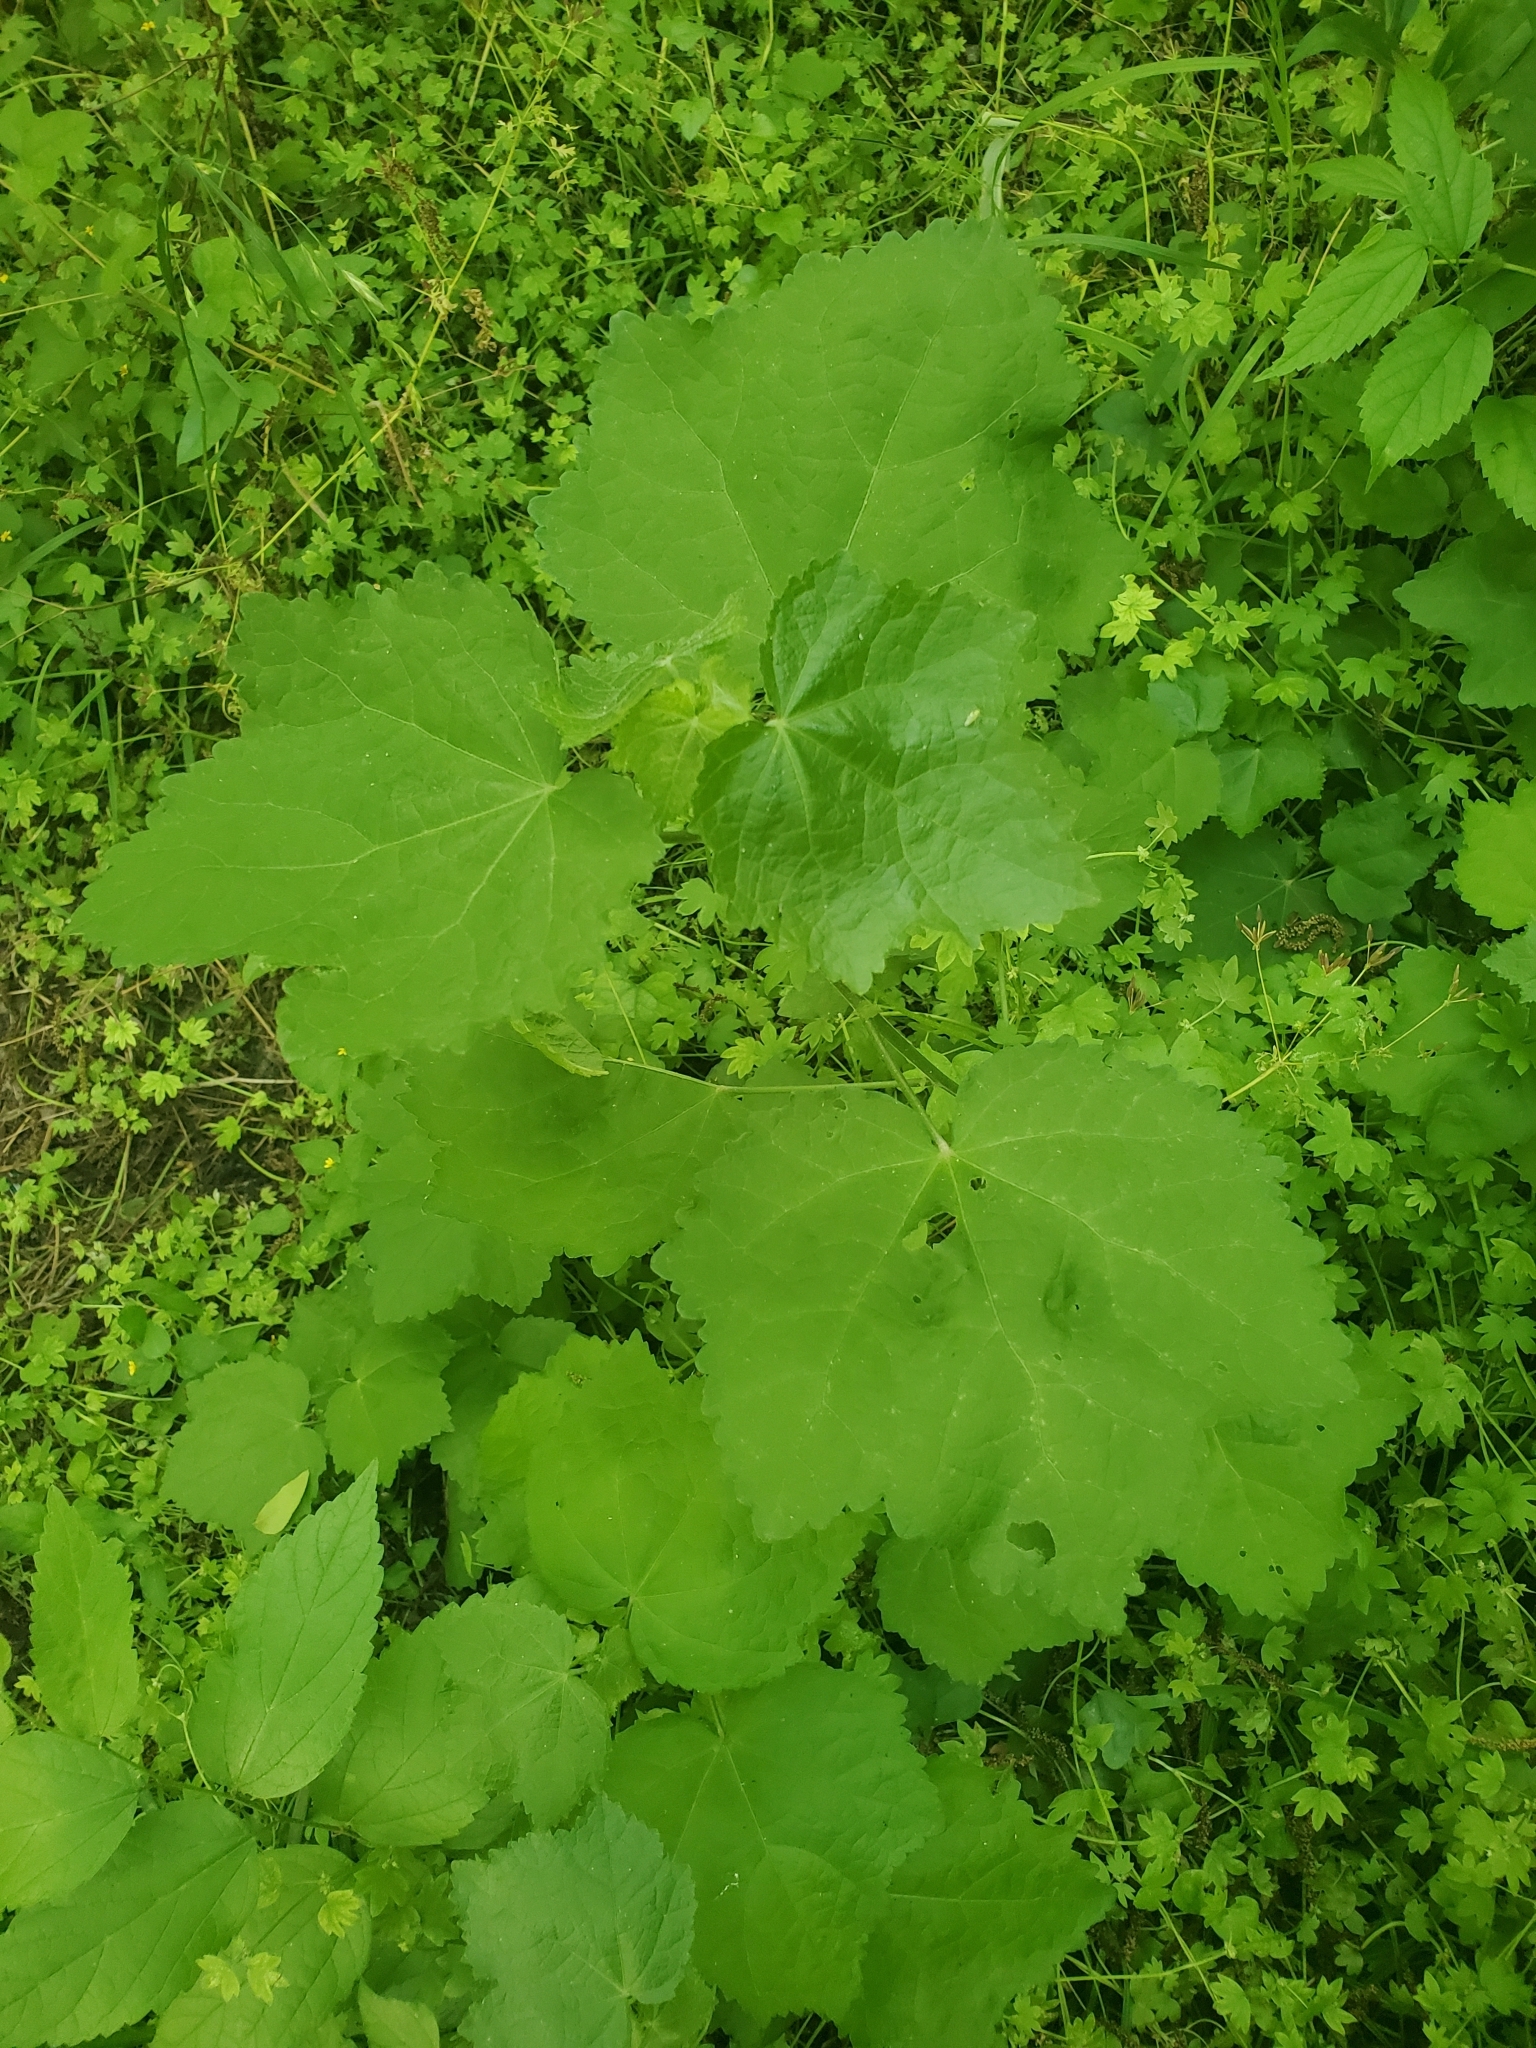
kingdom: Plantae
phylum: Tracheophyta
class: Magnoliopsida
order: Malvales
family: Malvaceae
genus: Malvaviscus
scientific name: Malvaviscus arboreus
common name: Wax mallow
